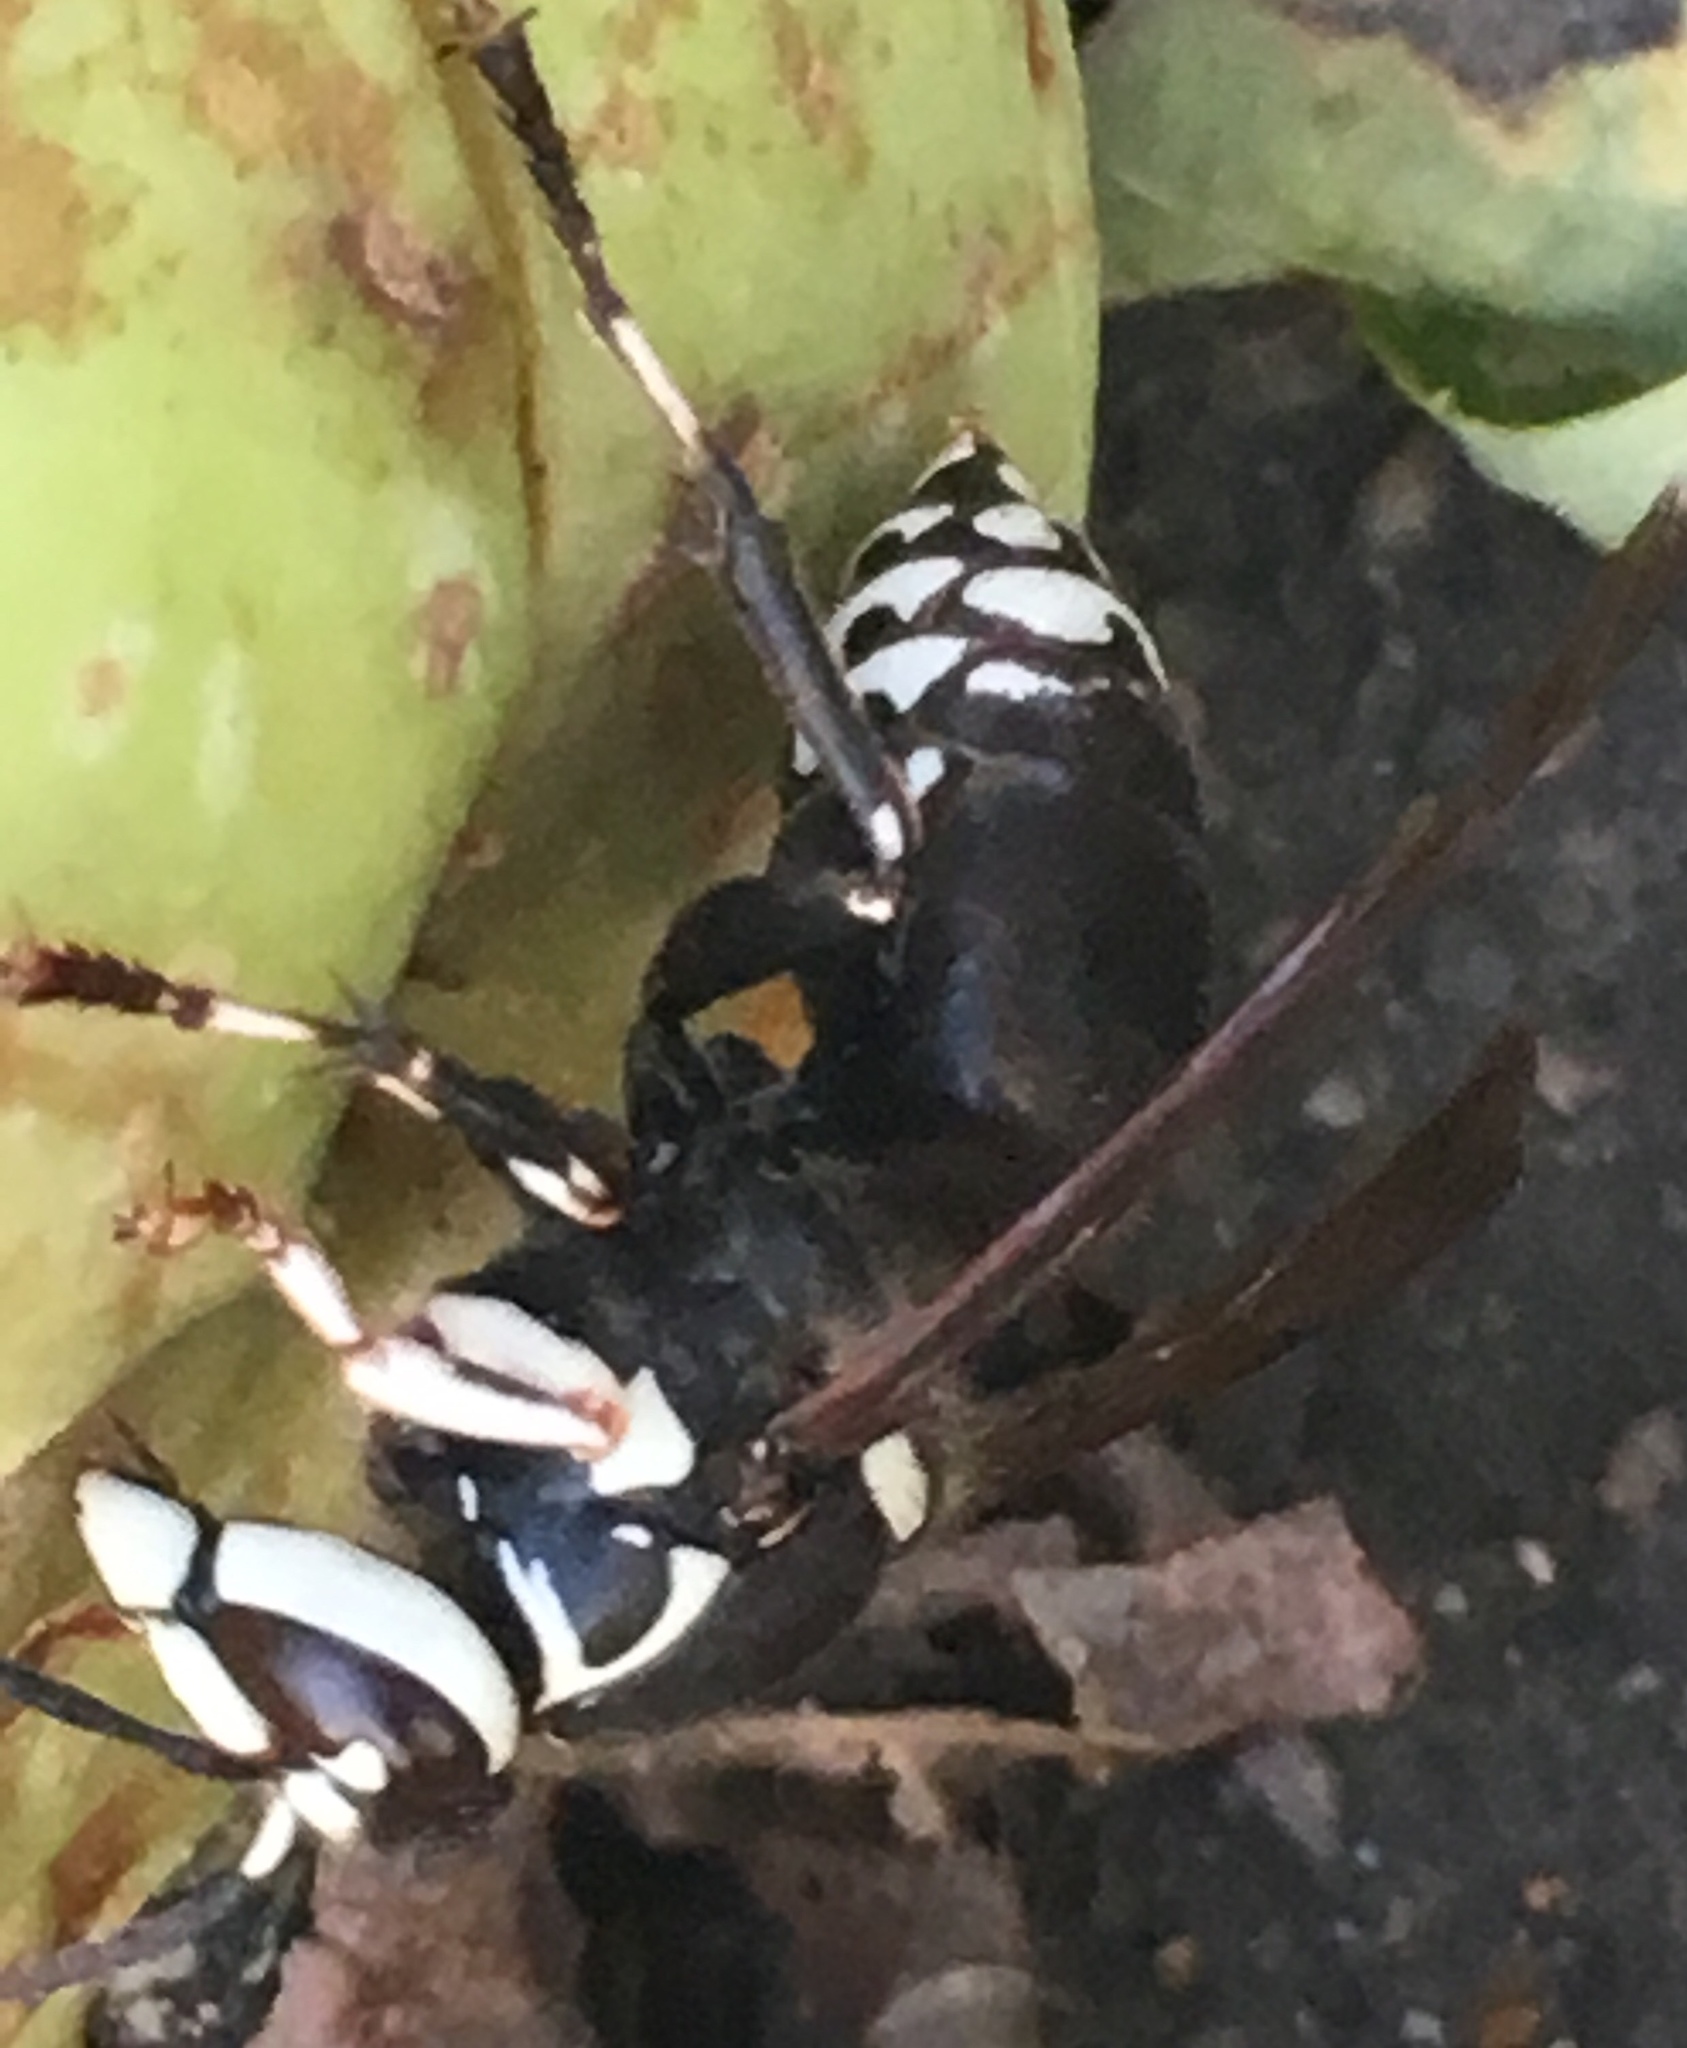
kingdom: Animalia
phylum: Arthropoda
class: Insecta
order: Hymenoptera
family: Vespidae
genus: Dolichovespula
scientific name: Dolichovespula maculata
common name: Bald-faced hornet
